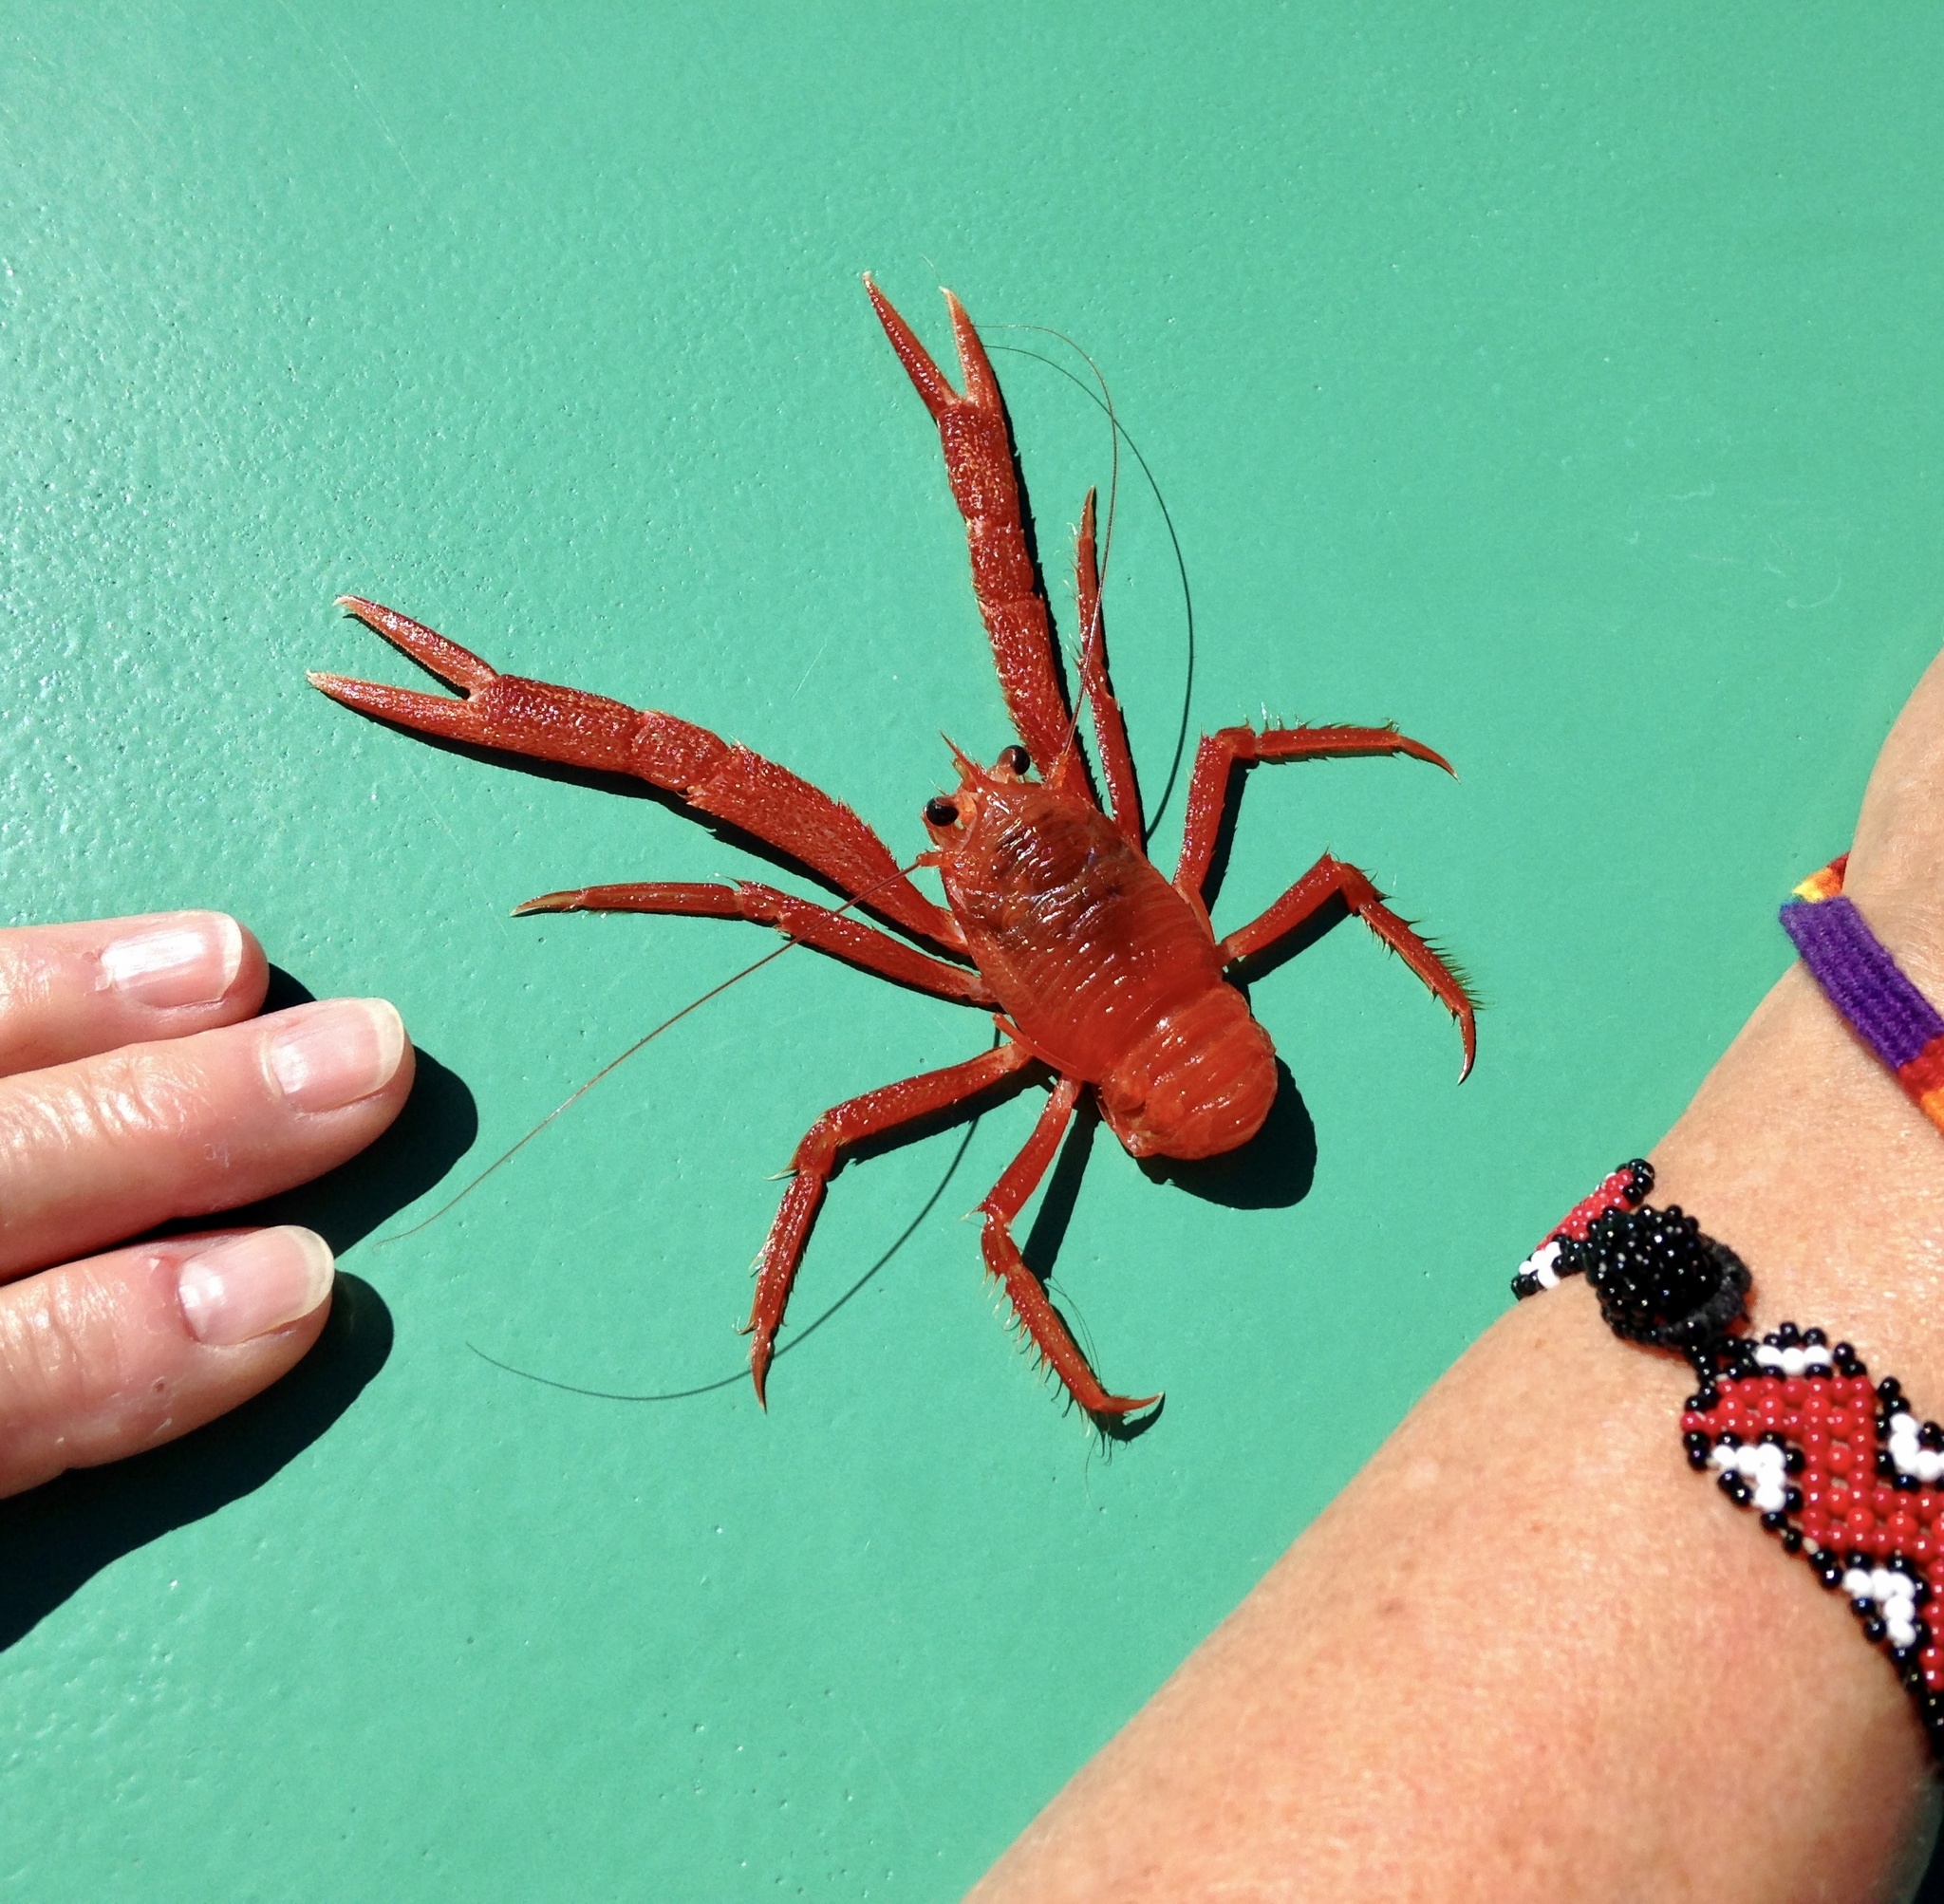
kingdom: Animalia
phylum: Arthropoda
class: Malacostraca
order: Decapoda
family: Munididae
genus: Grimothea
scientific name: Grimothea planipes
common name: Pelagic red crab
